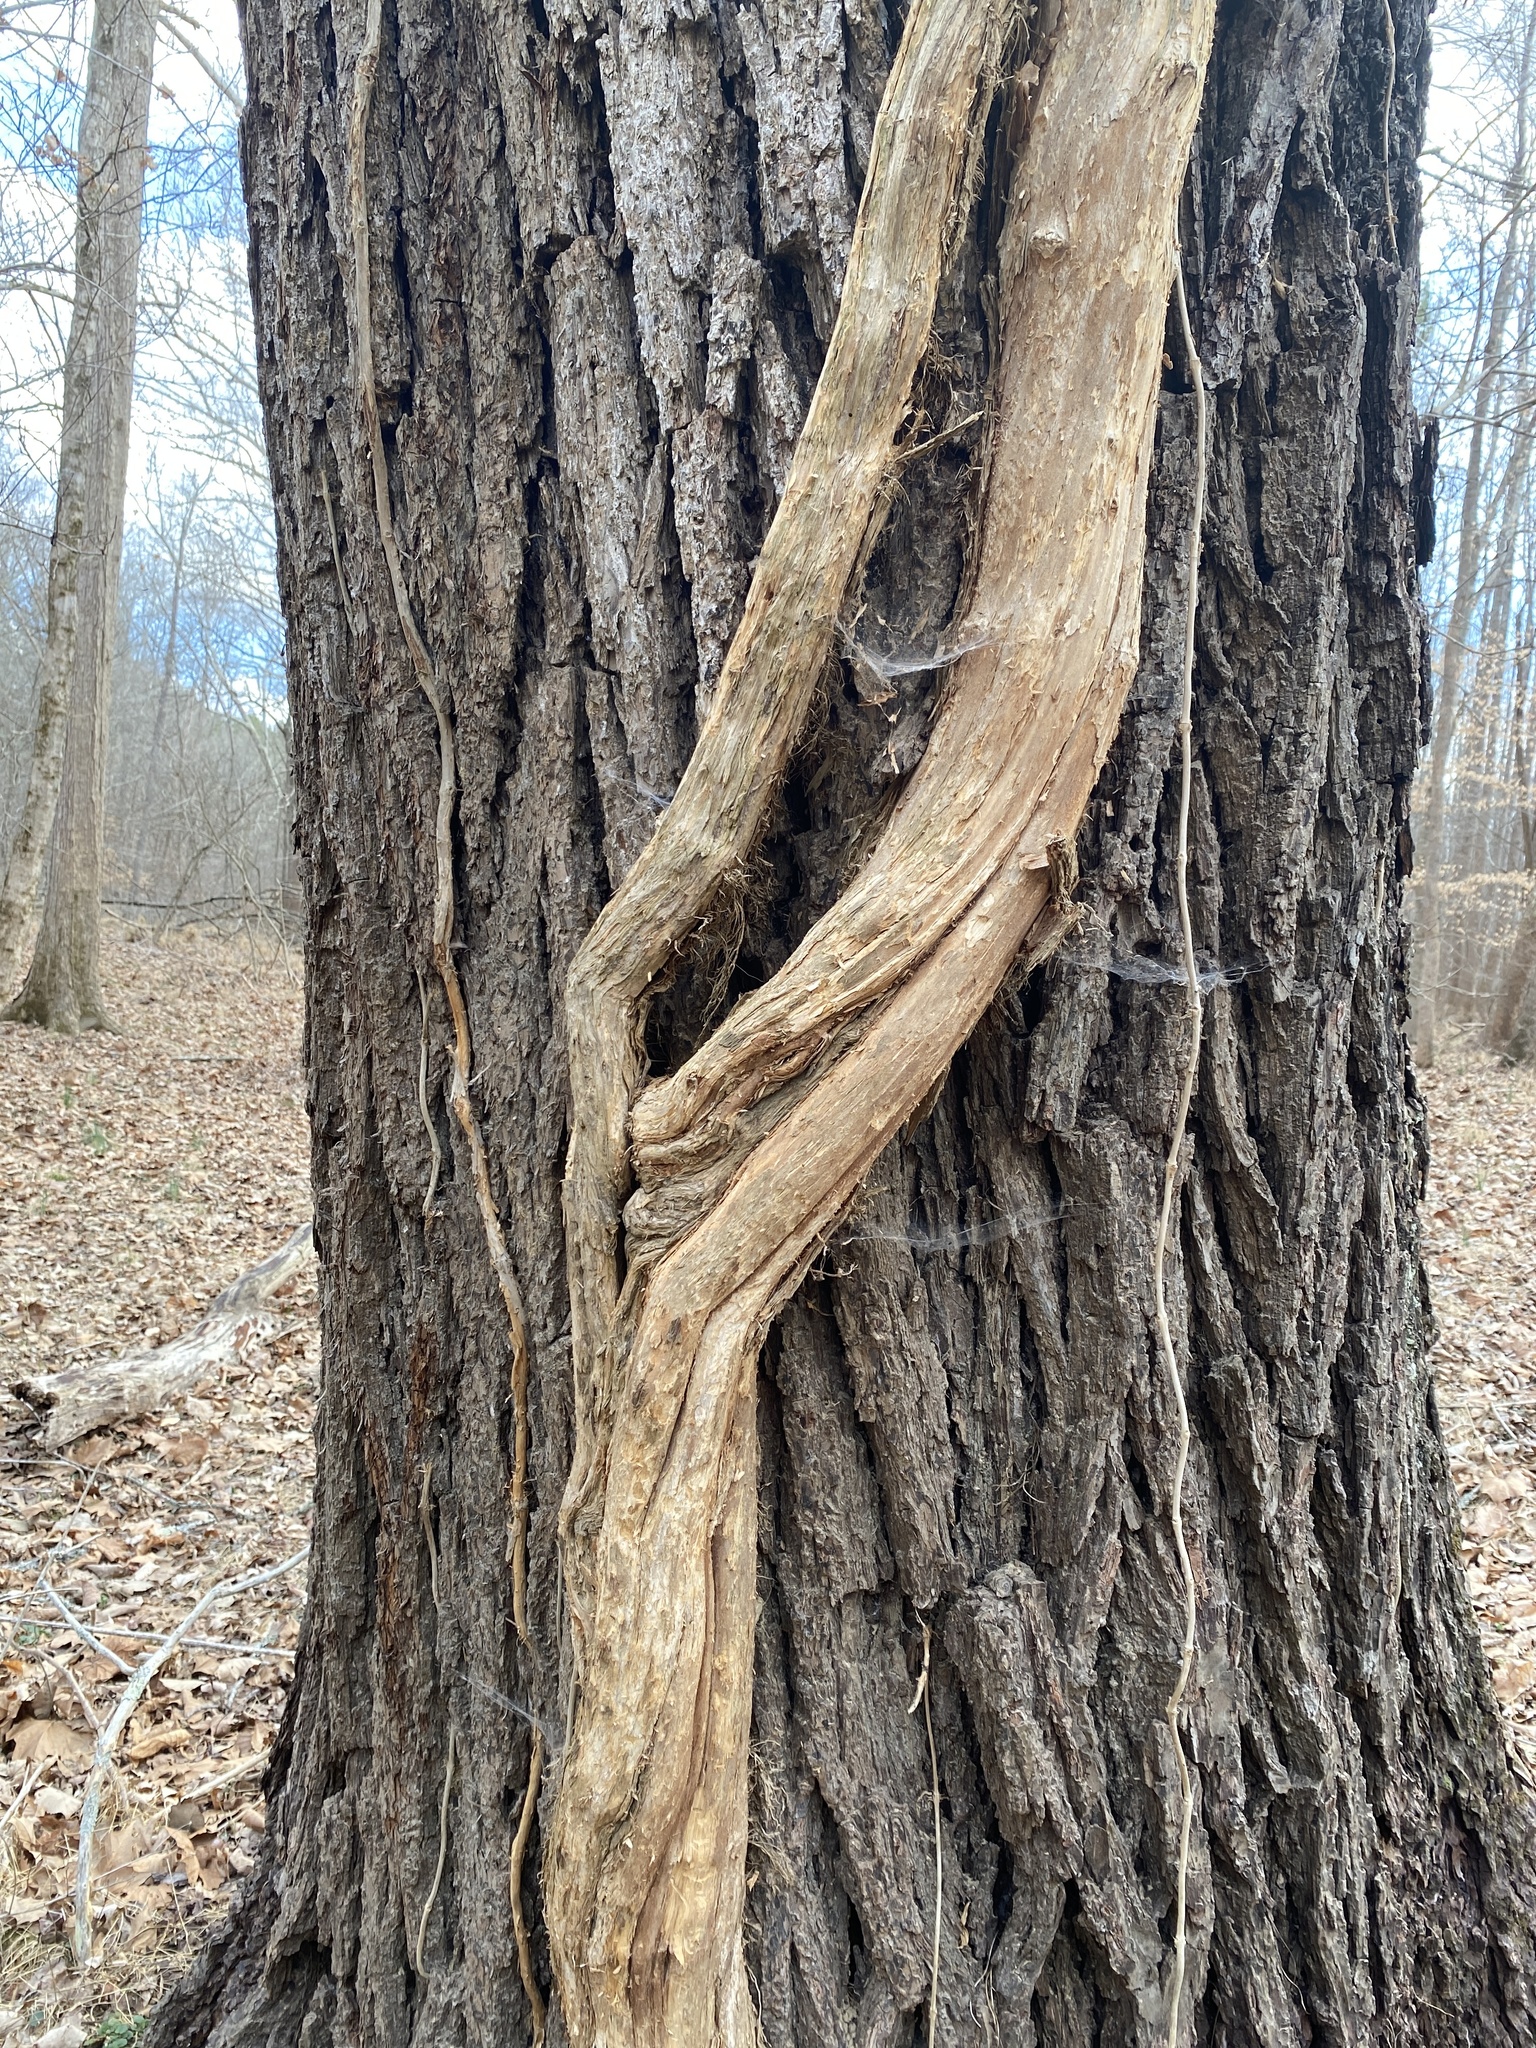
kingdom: Plantae
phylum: Tracheophyta
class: Magnoliopsida
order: Fagales
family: Juglandaceae
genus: Juglans
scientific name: Juglans nigra
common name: Black walnut
